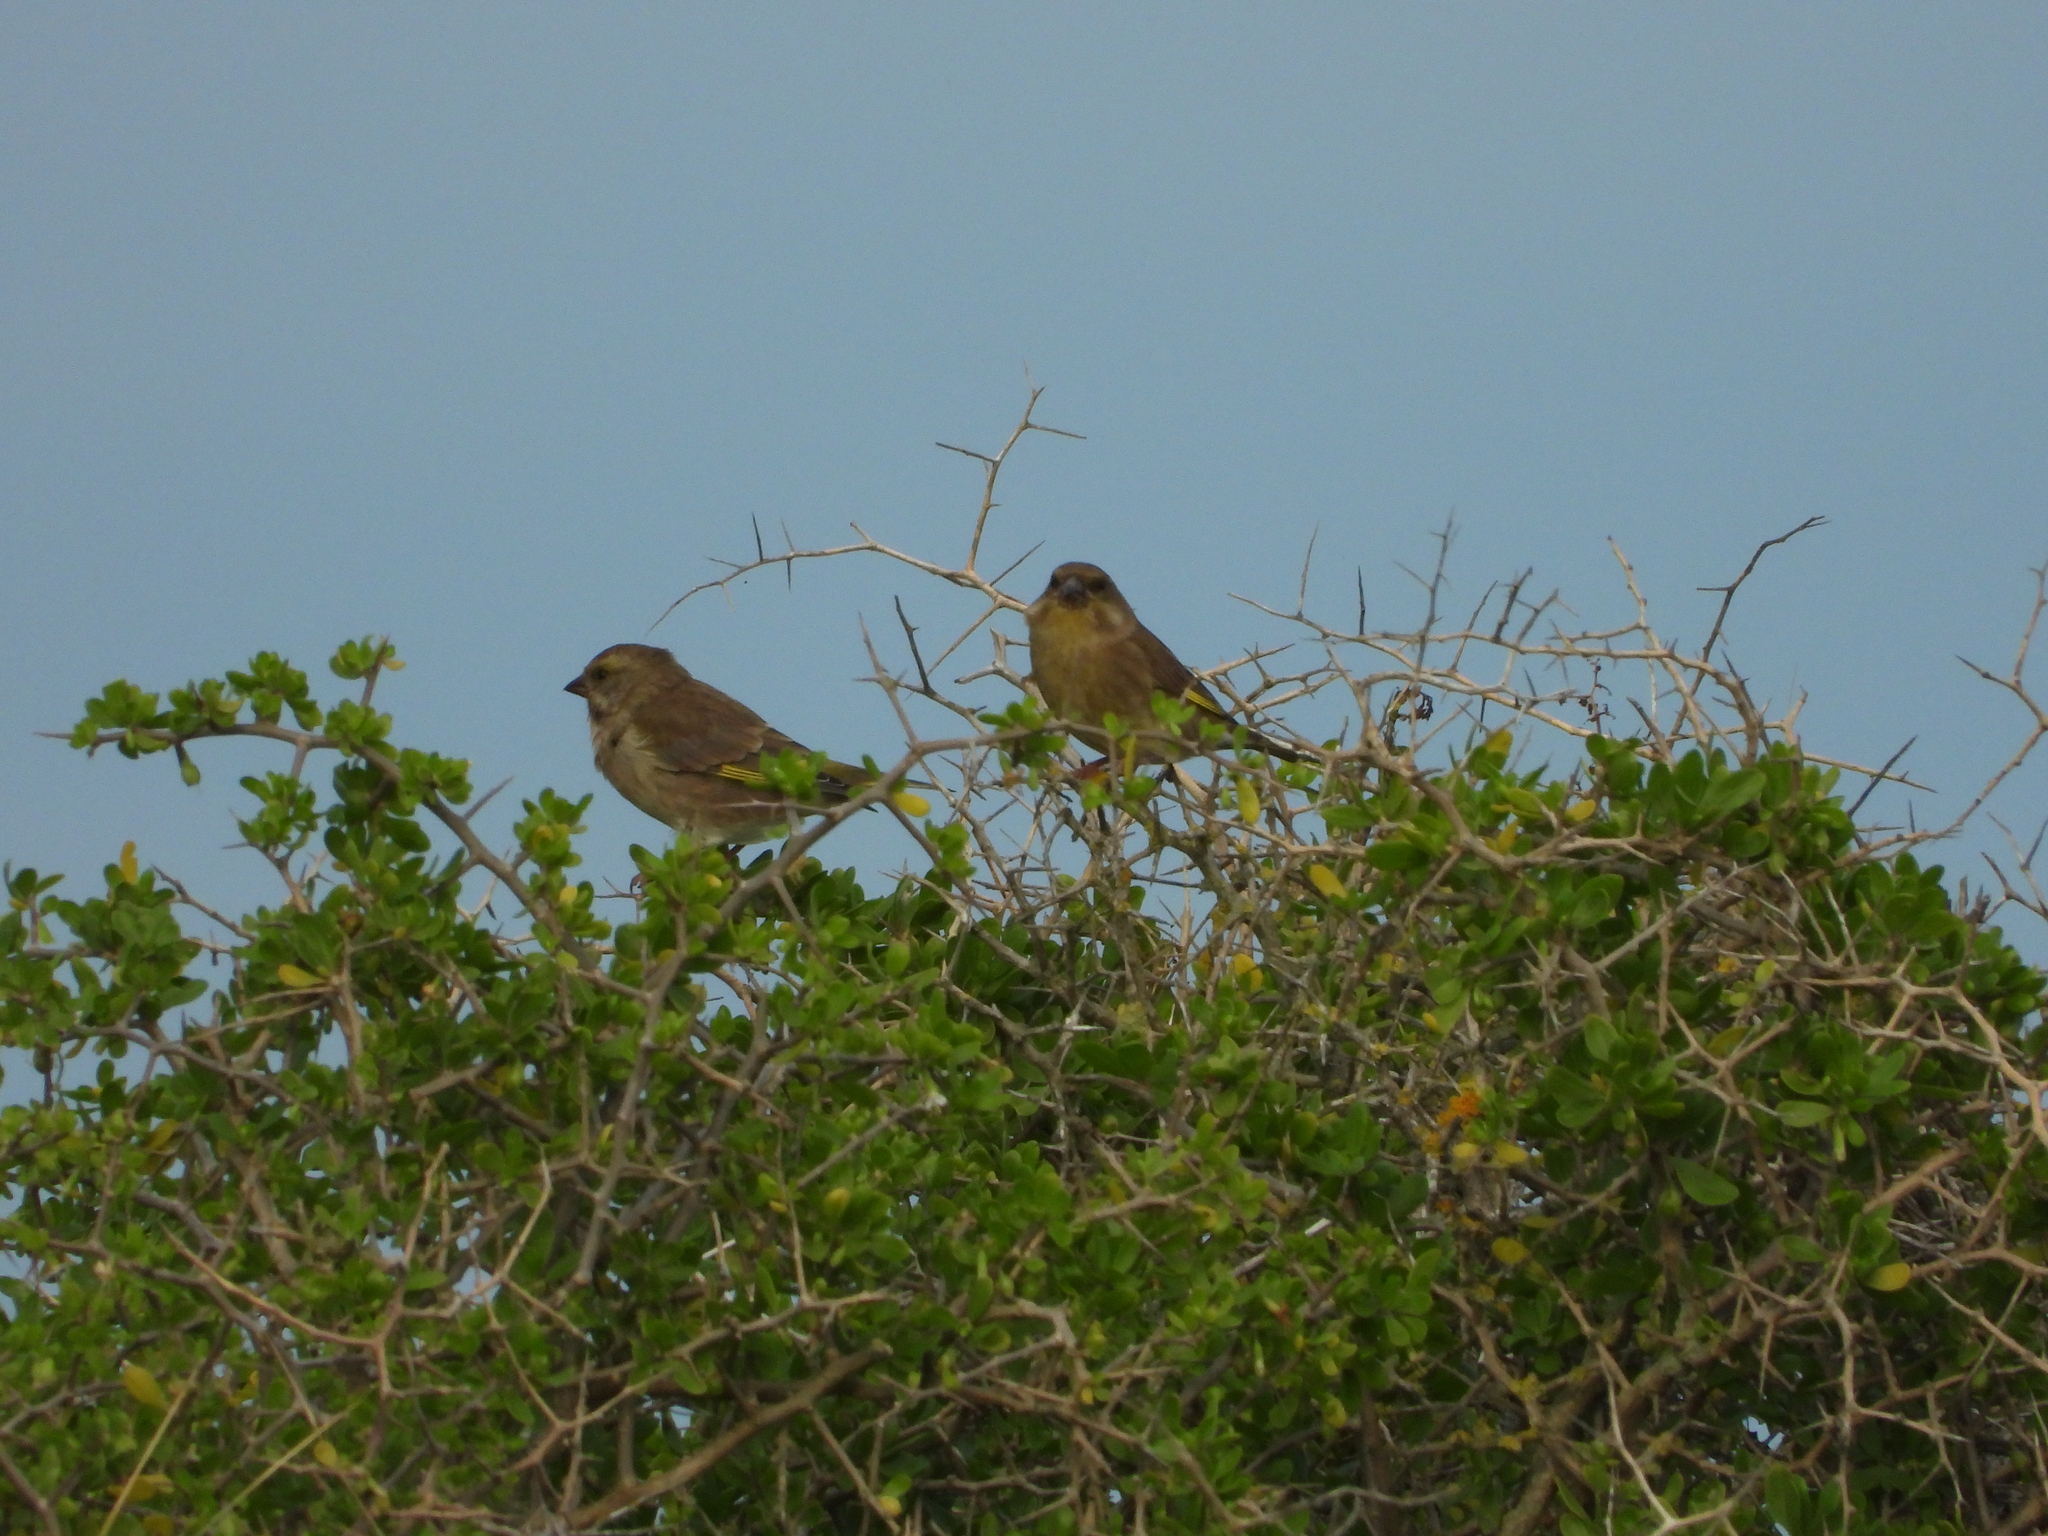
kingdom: Plantae
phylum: Tracheophyta
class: Liliopsida
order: Poales
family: Poaceae
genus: Chloris
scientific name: Chloris chloris
